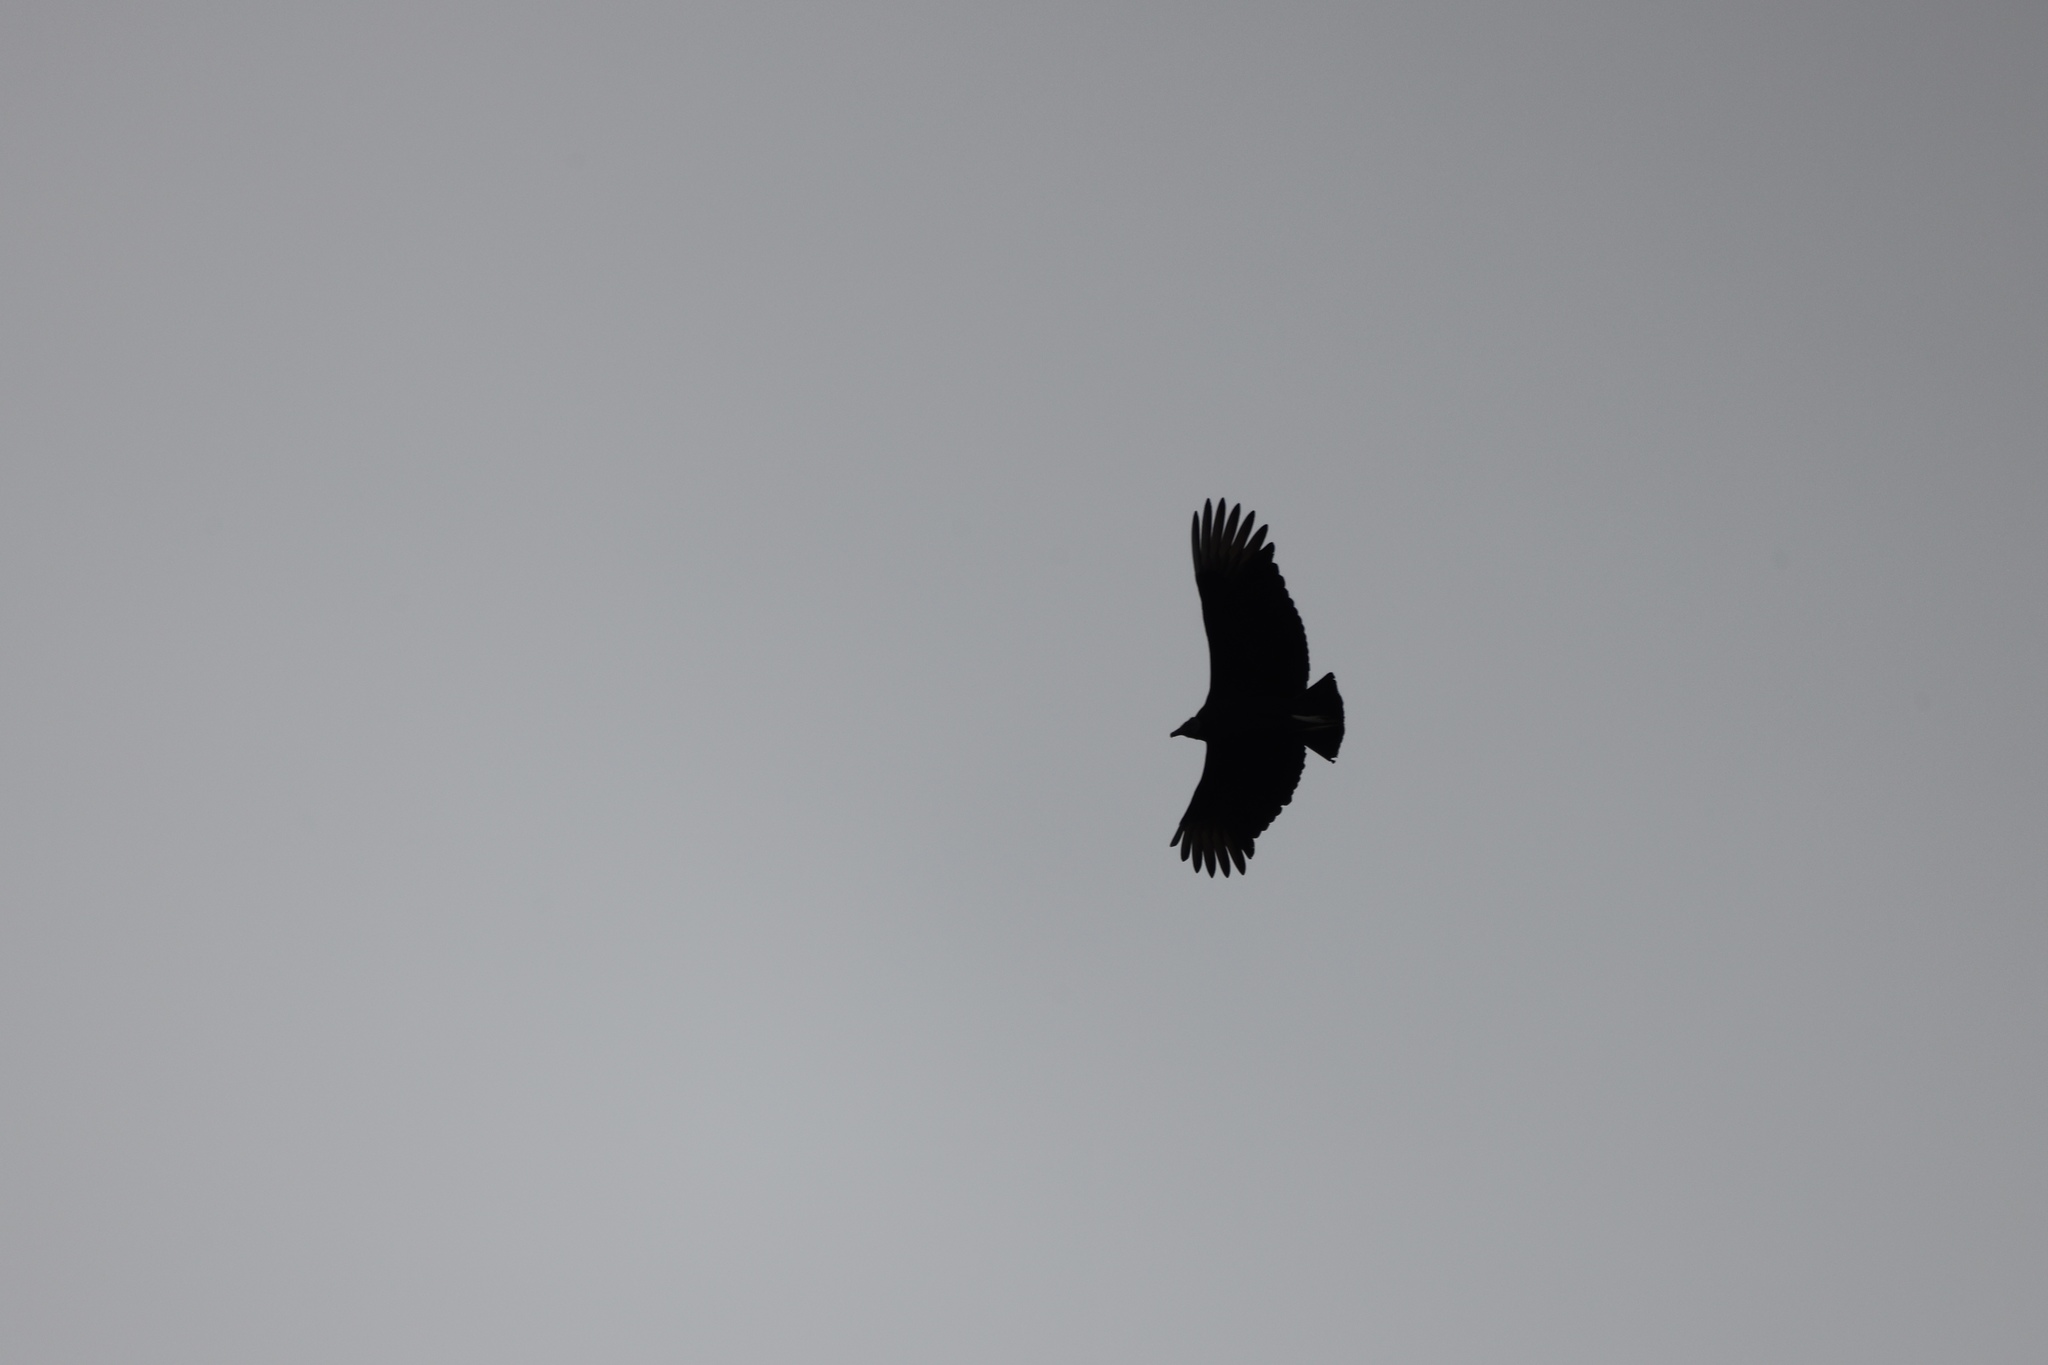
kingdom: Animalia
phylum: Chordata
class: Aves
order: Accipitriformes
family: Cathartidae
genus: Coragyps
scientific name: Coragyps atratus
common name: Black vulture
